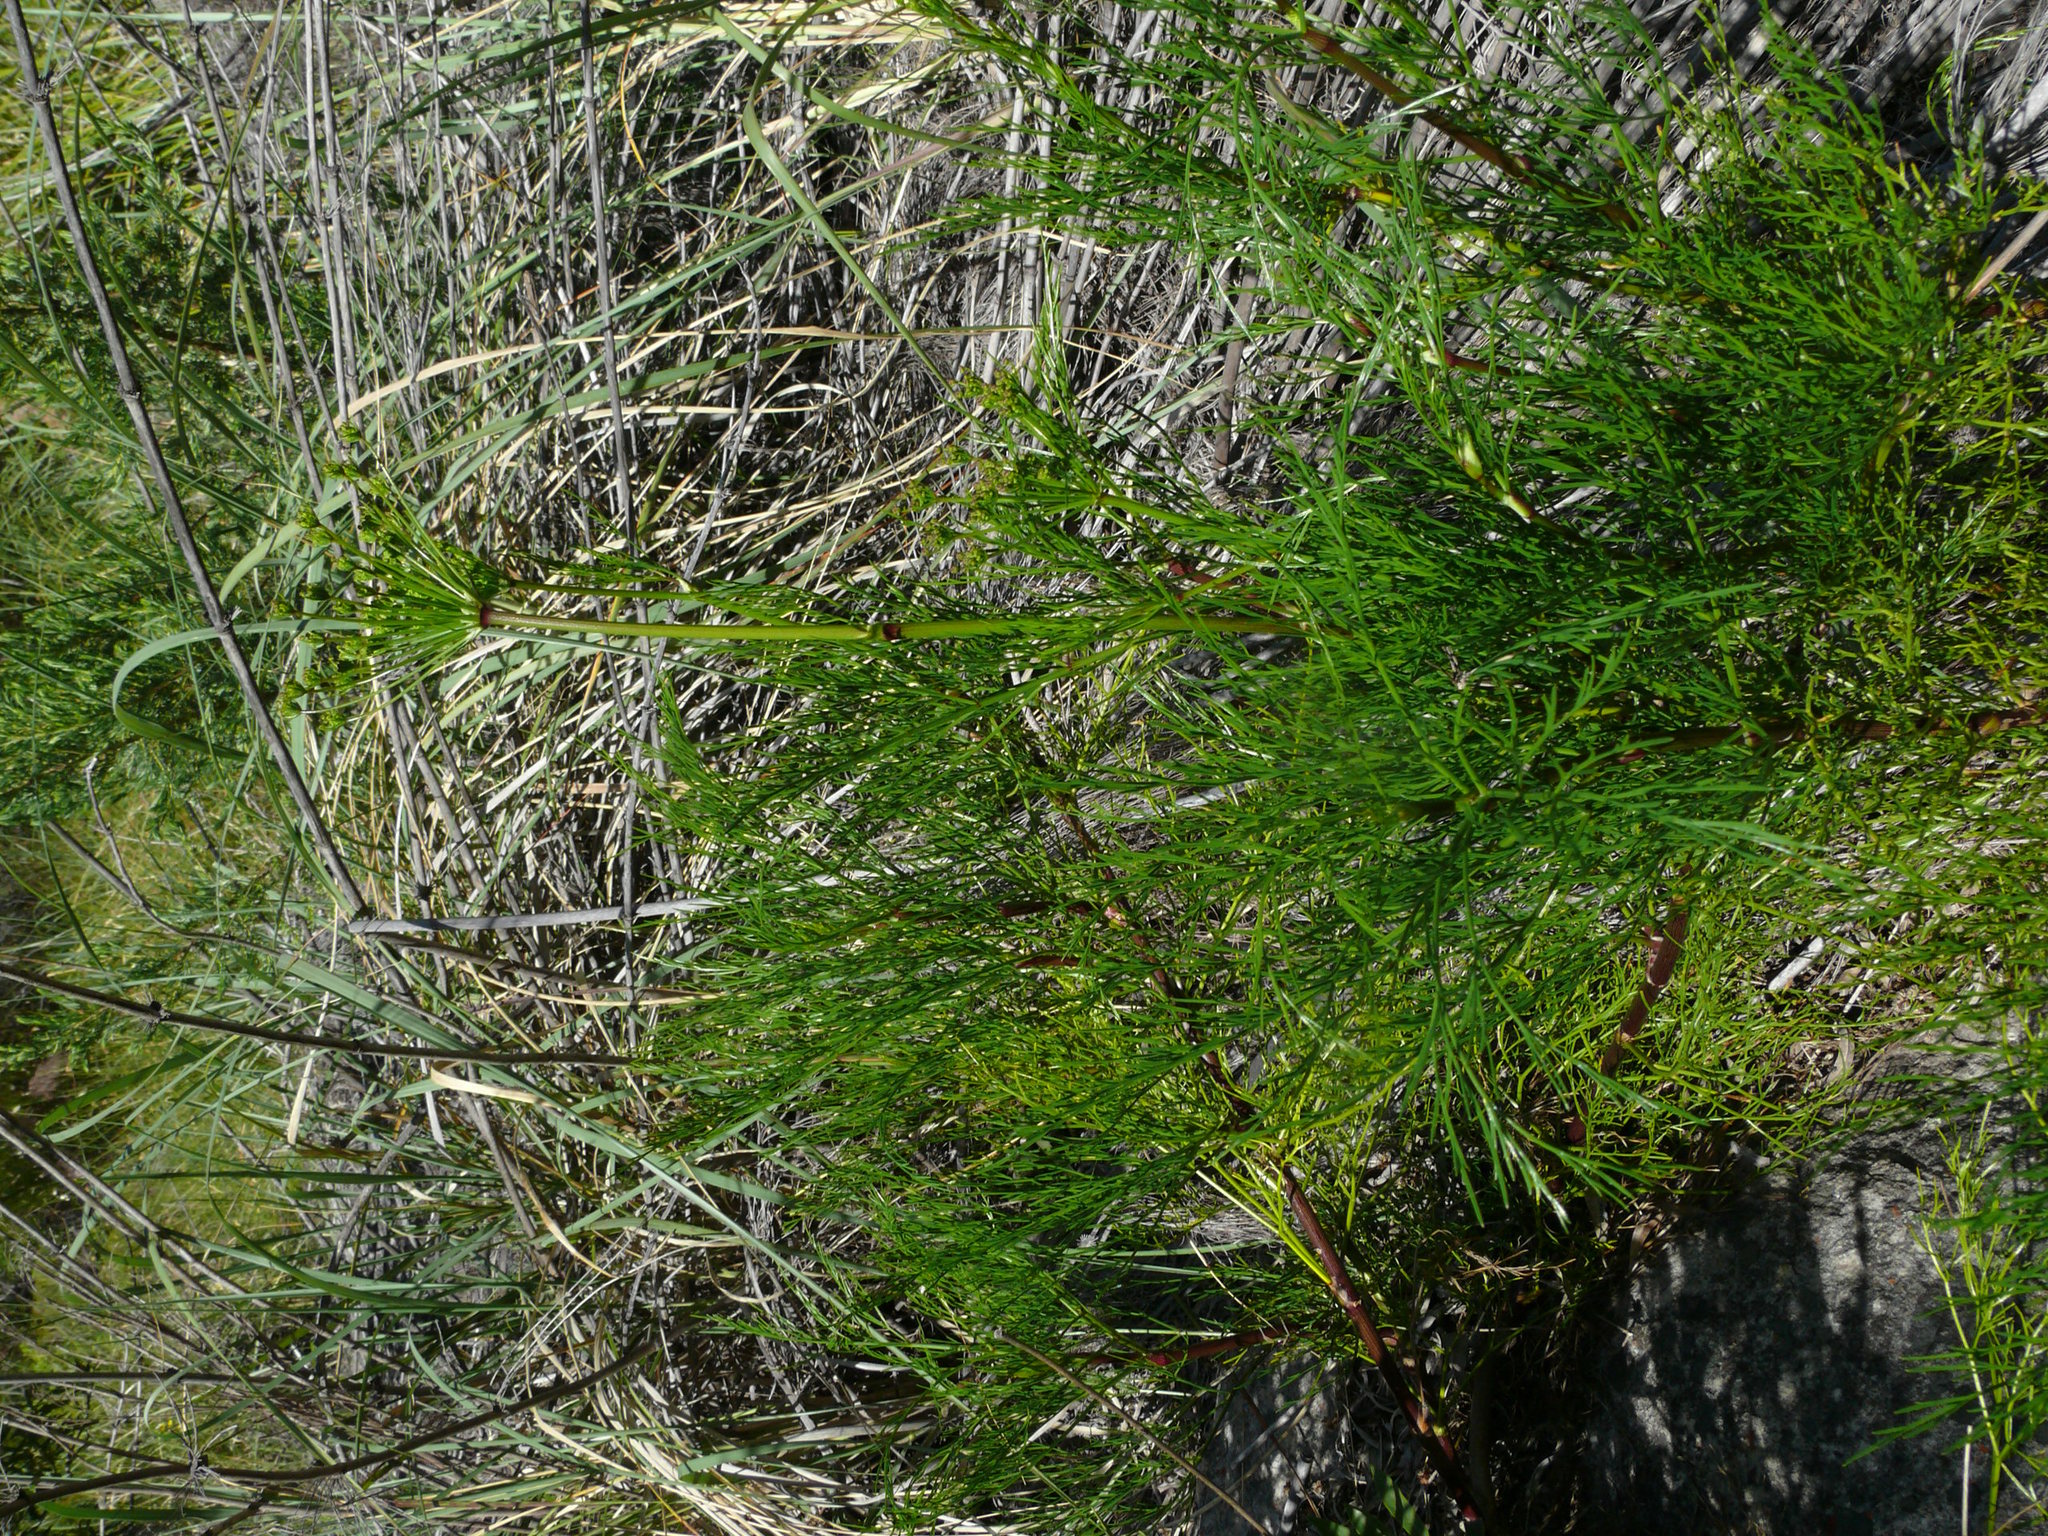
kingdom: Plantae
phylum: Tracheophyta
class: Magnoliopsida
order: Apiales
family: Apiaceae
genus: Notobubon
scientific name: Notobubon tenuifolium
